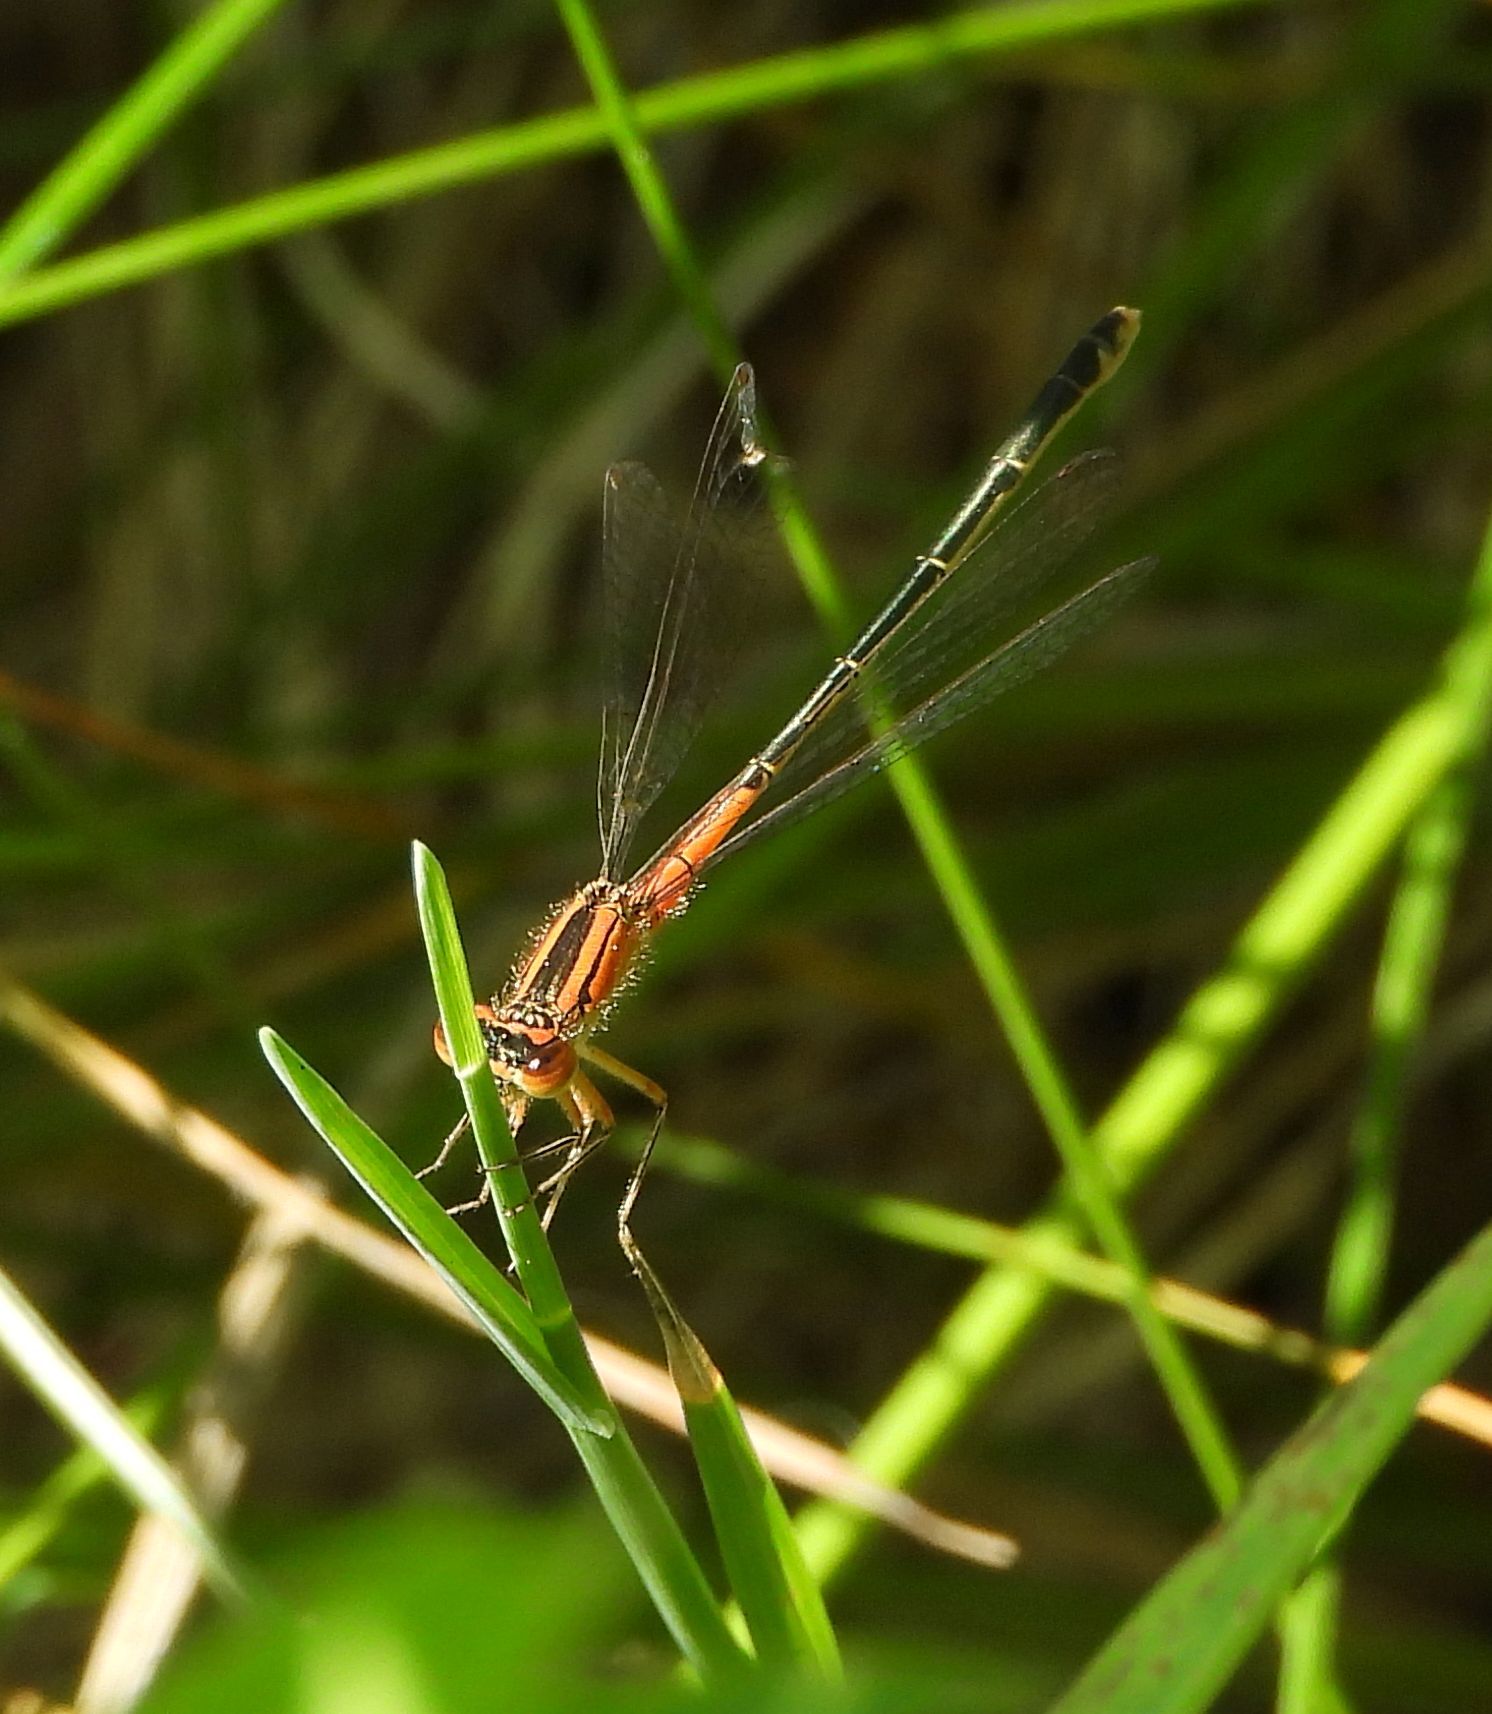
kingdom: Animalia
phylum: Arthropoda
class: Insecta
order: Odonata
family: Coenagrionidae
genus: Ischnura
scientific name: Ischnura verticalis
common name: Eastern forktail
